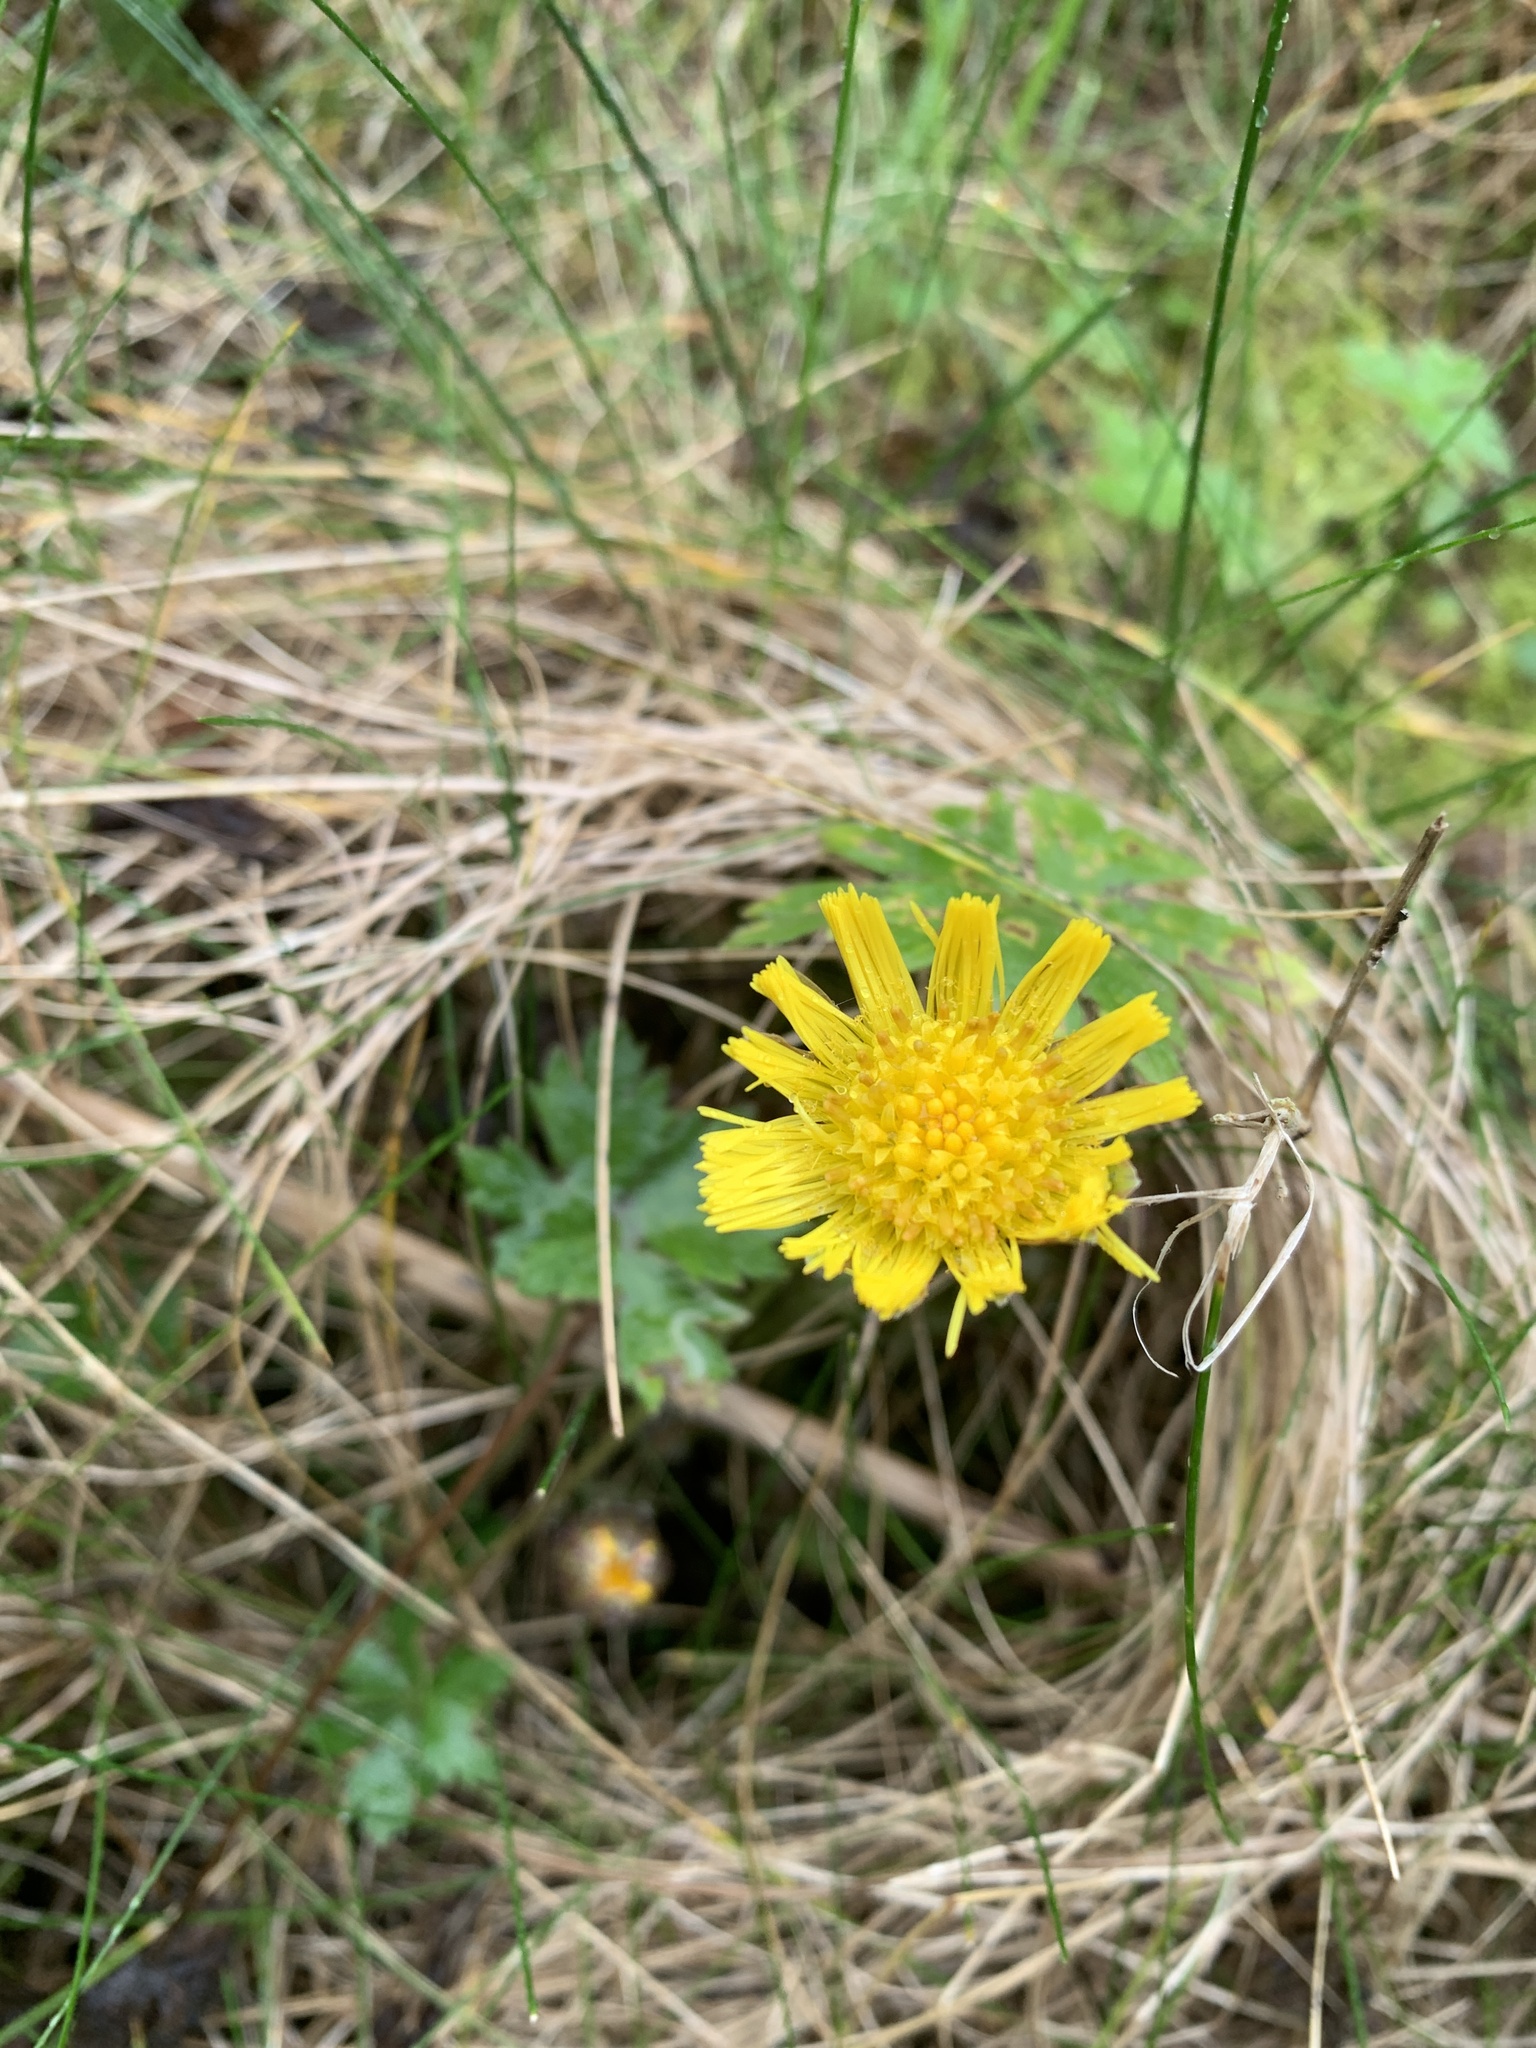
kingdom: Plantae
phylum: Tracheophyta
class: Magnoliopsida
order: Asterales
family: Asteraceae
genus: Tussilago
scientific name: Tussilago farfara
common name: Coltsfoot
